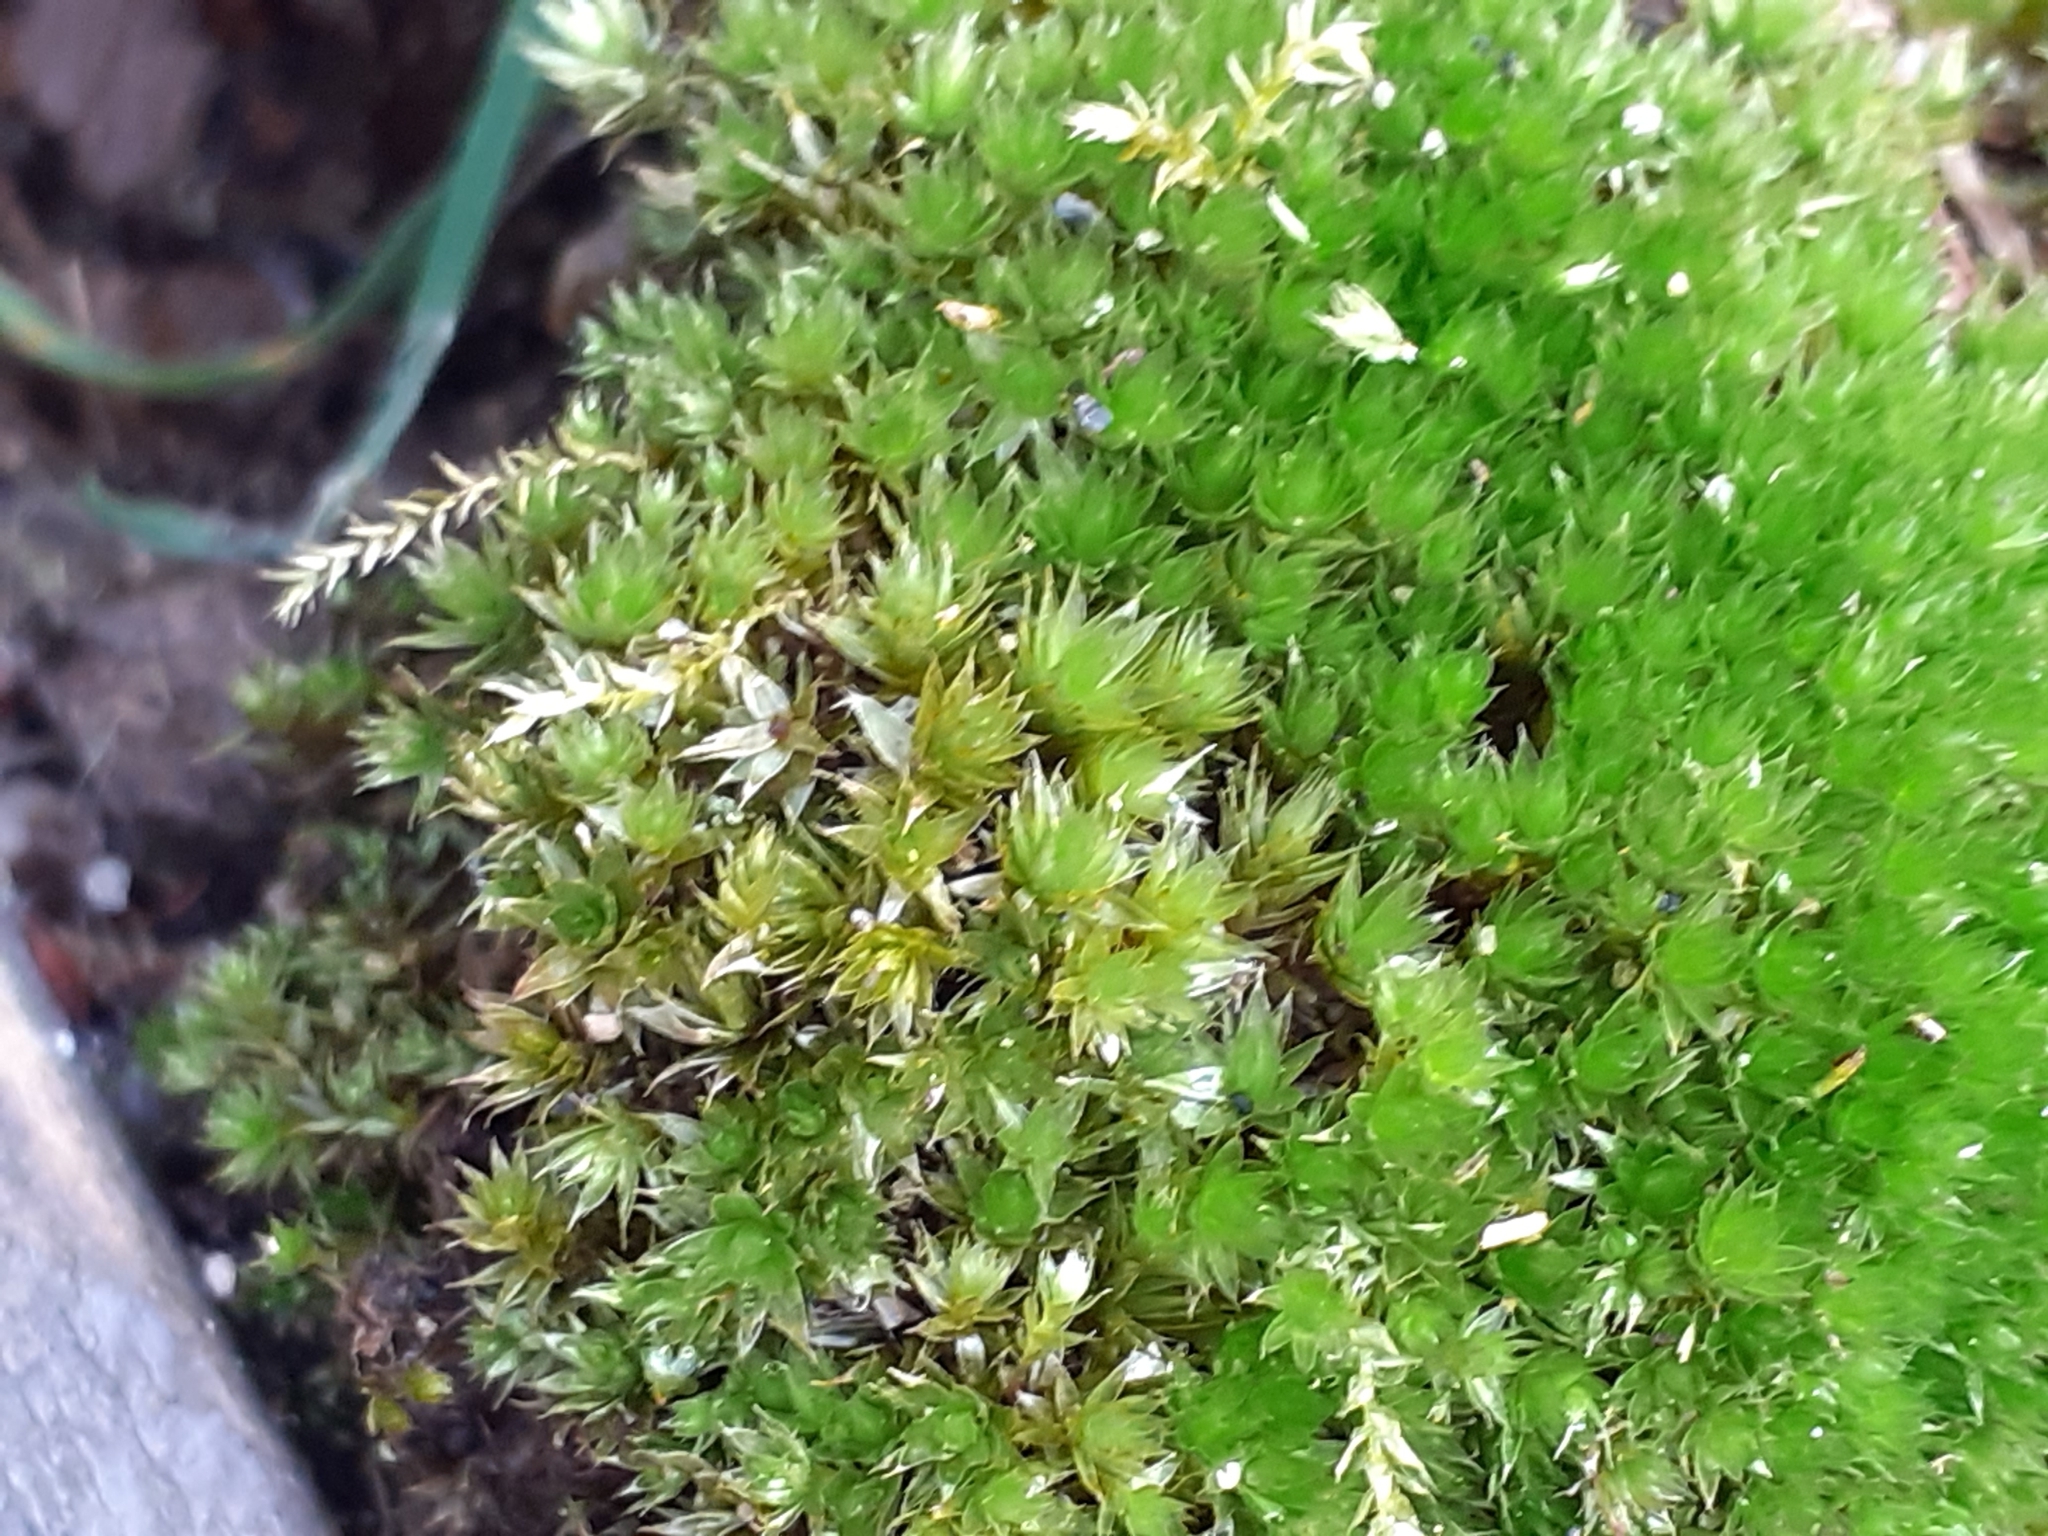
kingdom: Plantae
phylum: Bryophyta
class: Bryopsida
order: Bryales
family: Bryaceae
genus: Rosulabryum
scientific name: Rosulabryum capillare
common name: Capillary thread-moss
